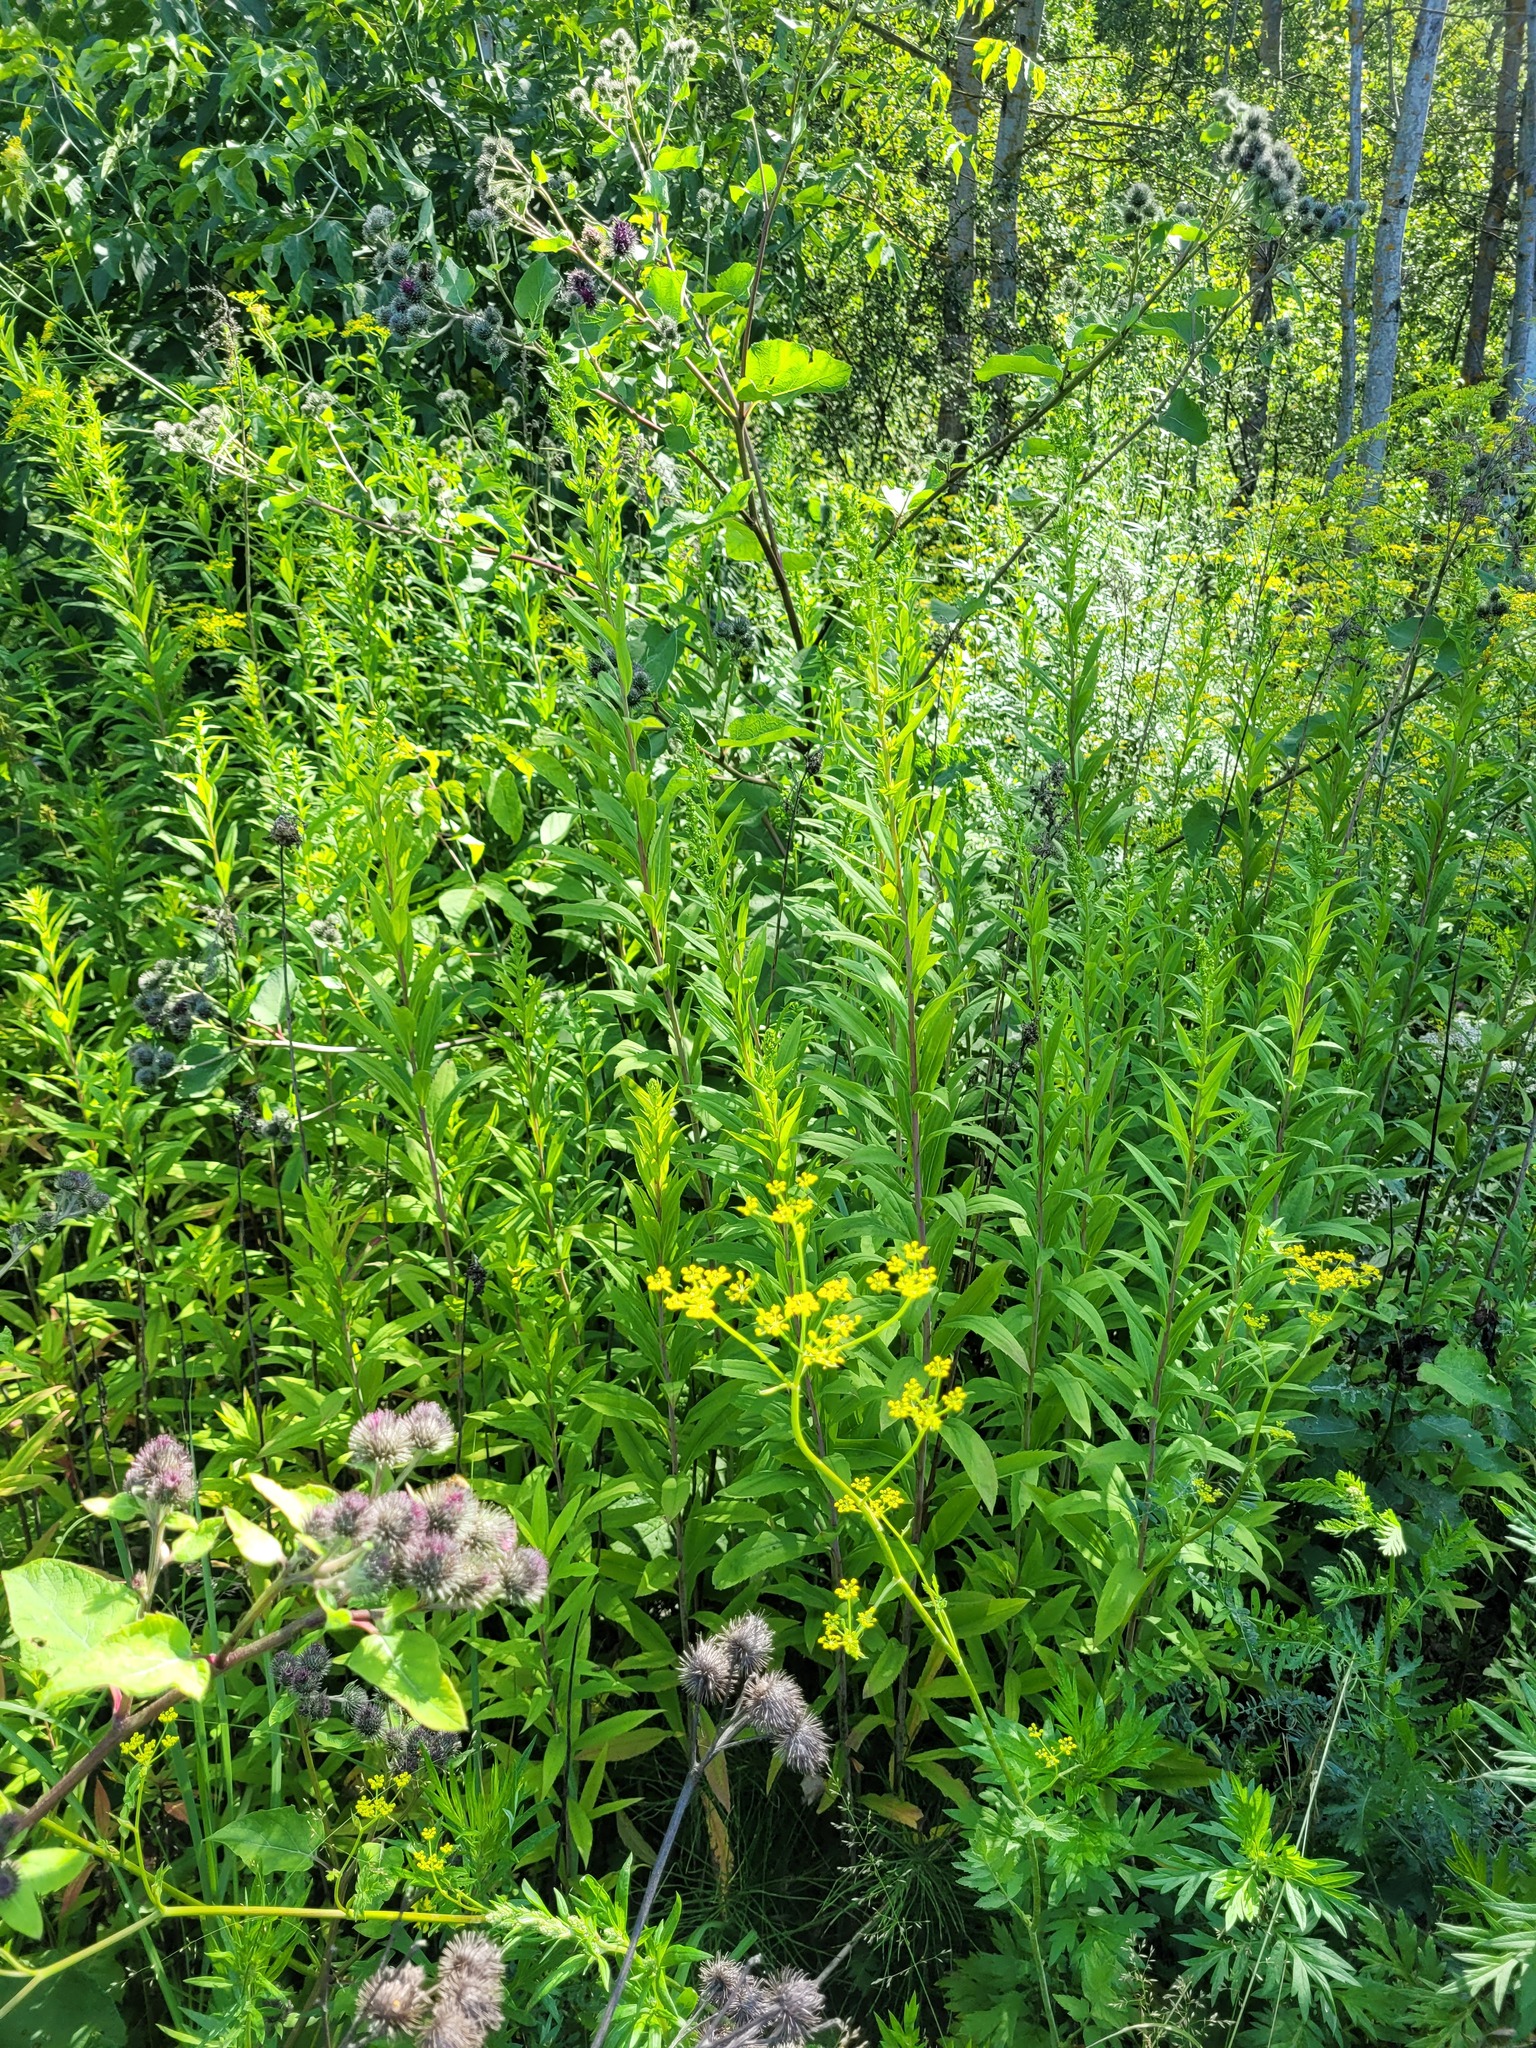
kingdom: Plantae
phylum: Tracheophyta
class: Magnoliopsida
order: Asterales
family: Asteraceae
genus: Solidago
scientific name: Solidago gigantea
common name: Giant goldenrod
